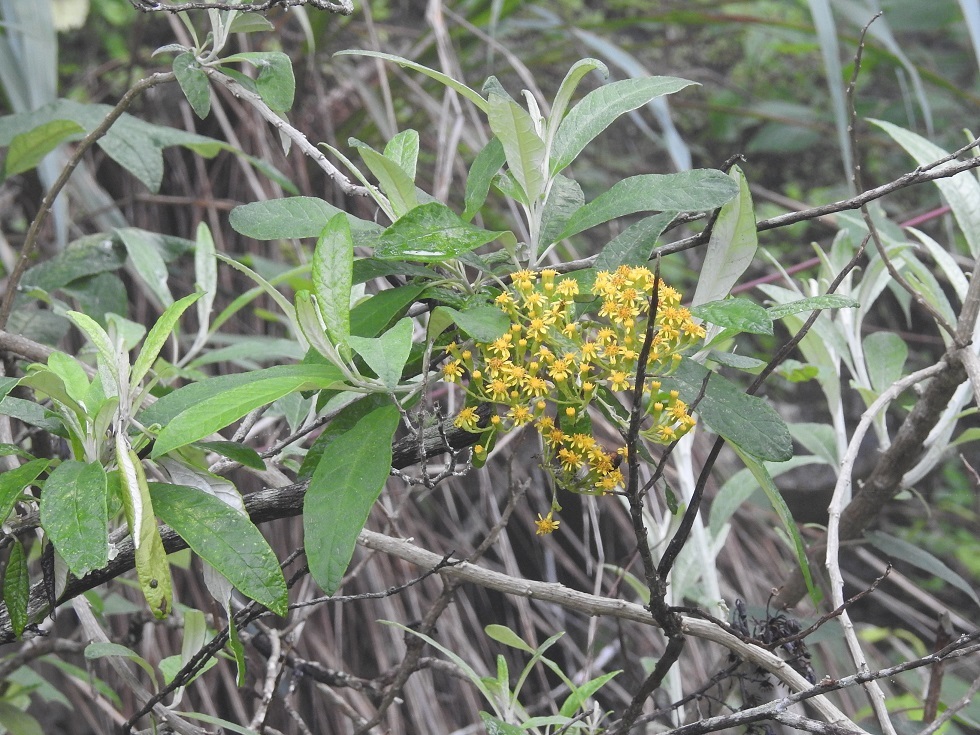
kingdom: Plantae
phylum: Tracheophyta
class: Magnoliopsida
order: Asterales
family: Asteraceae
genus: Zemisia
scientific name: Zemisia thomasii
